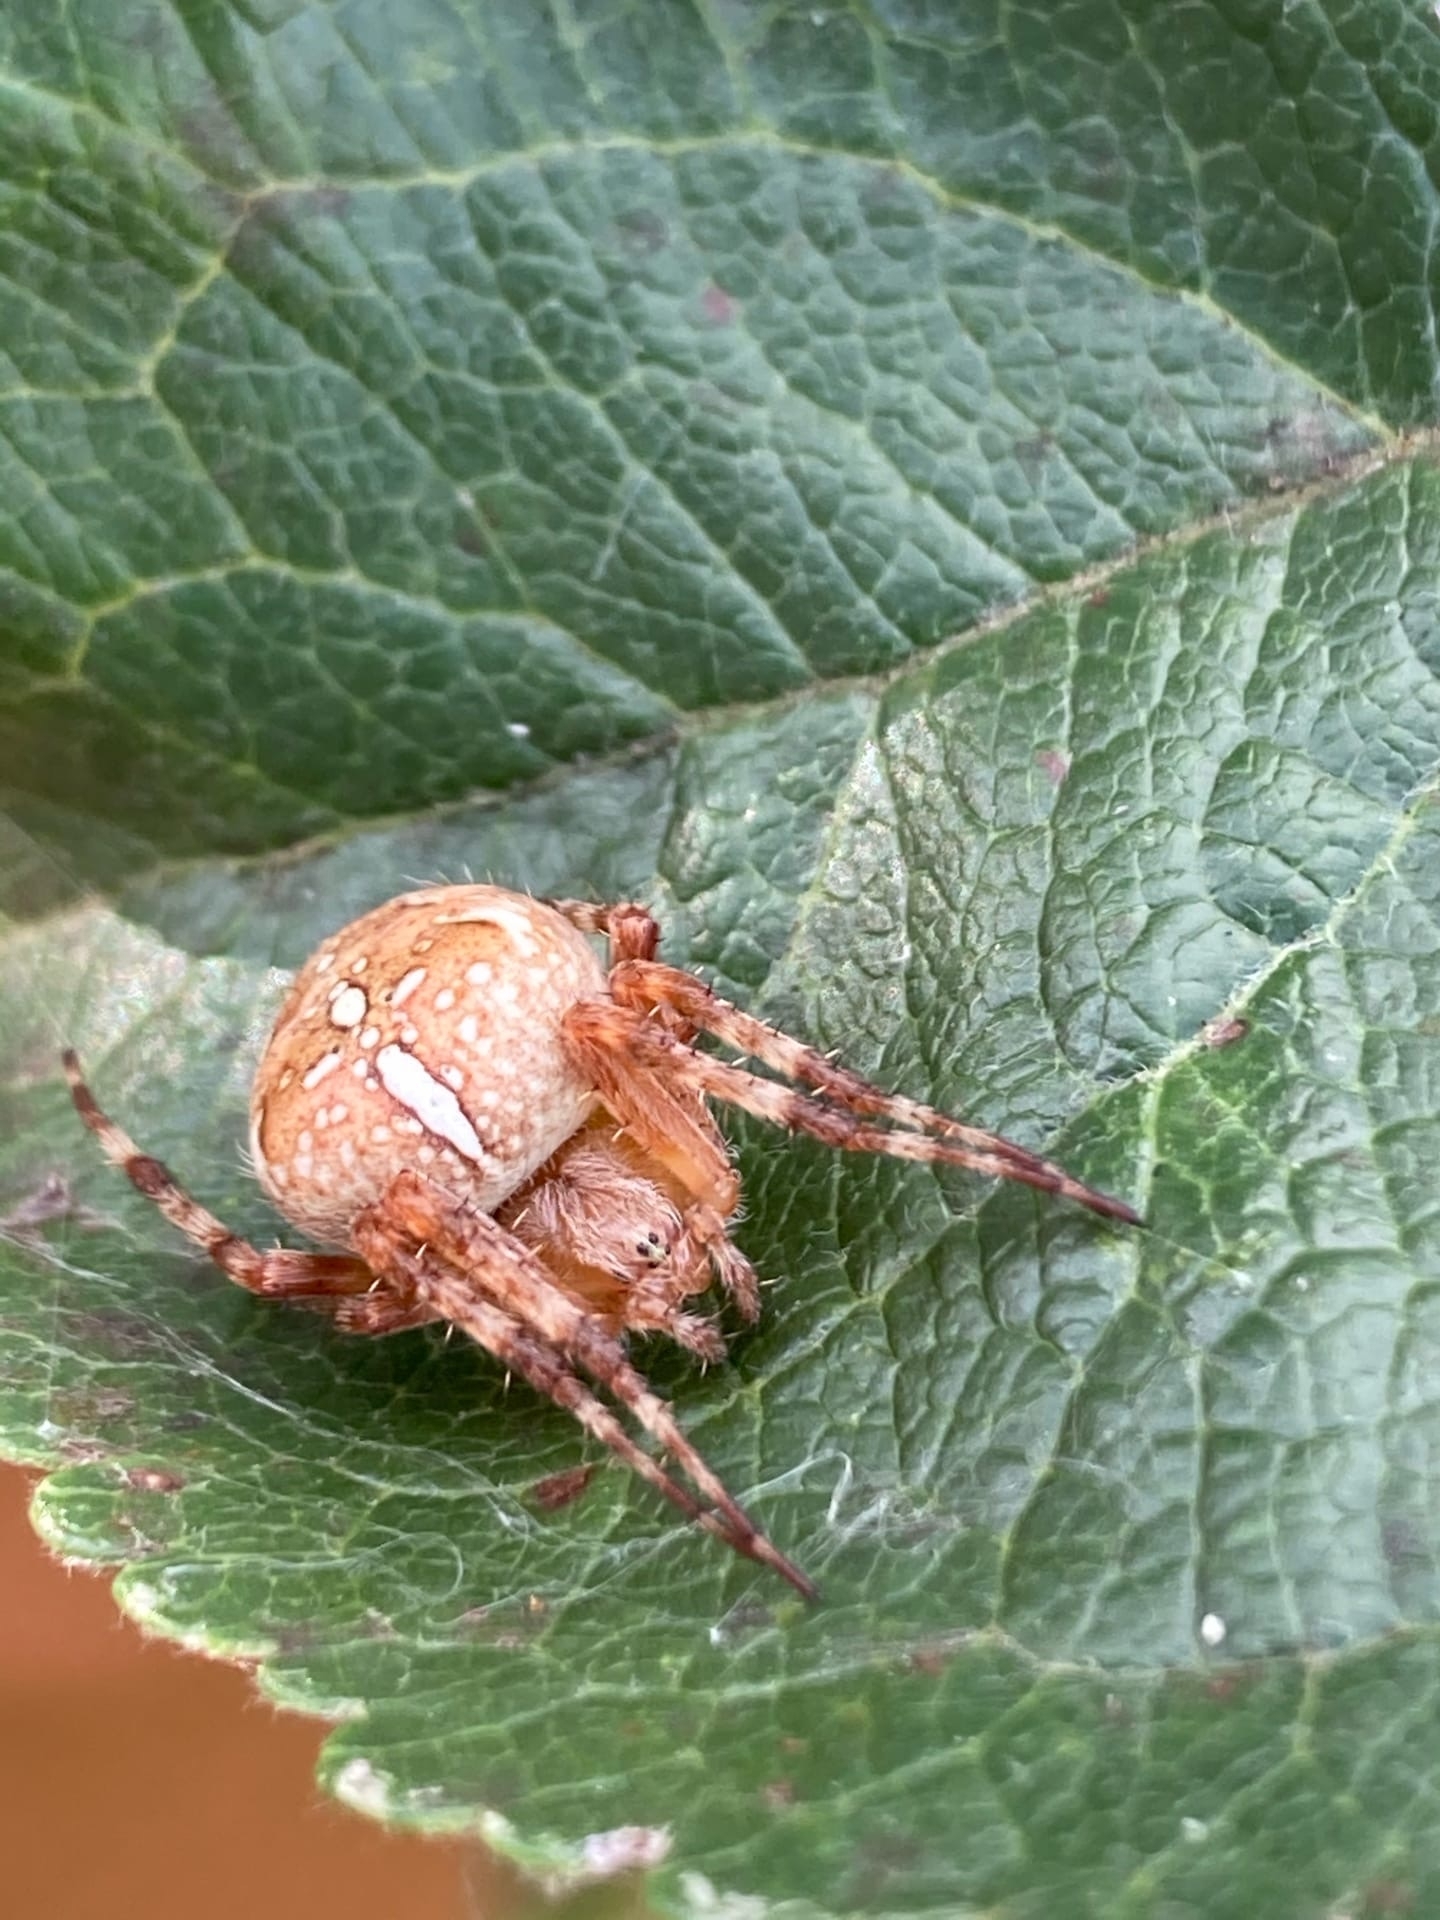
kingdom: Animalia
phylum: Arthropoda
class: Arachnida
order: Araneae
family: Araneidae
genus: Araneus
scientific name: Araneus diadematus
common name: Cross orbweaver
